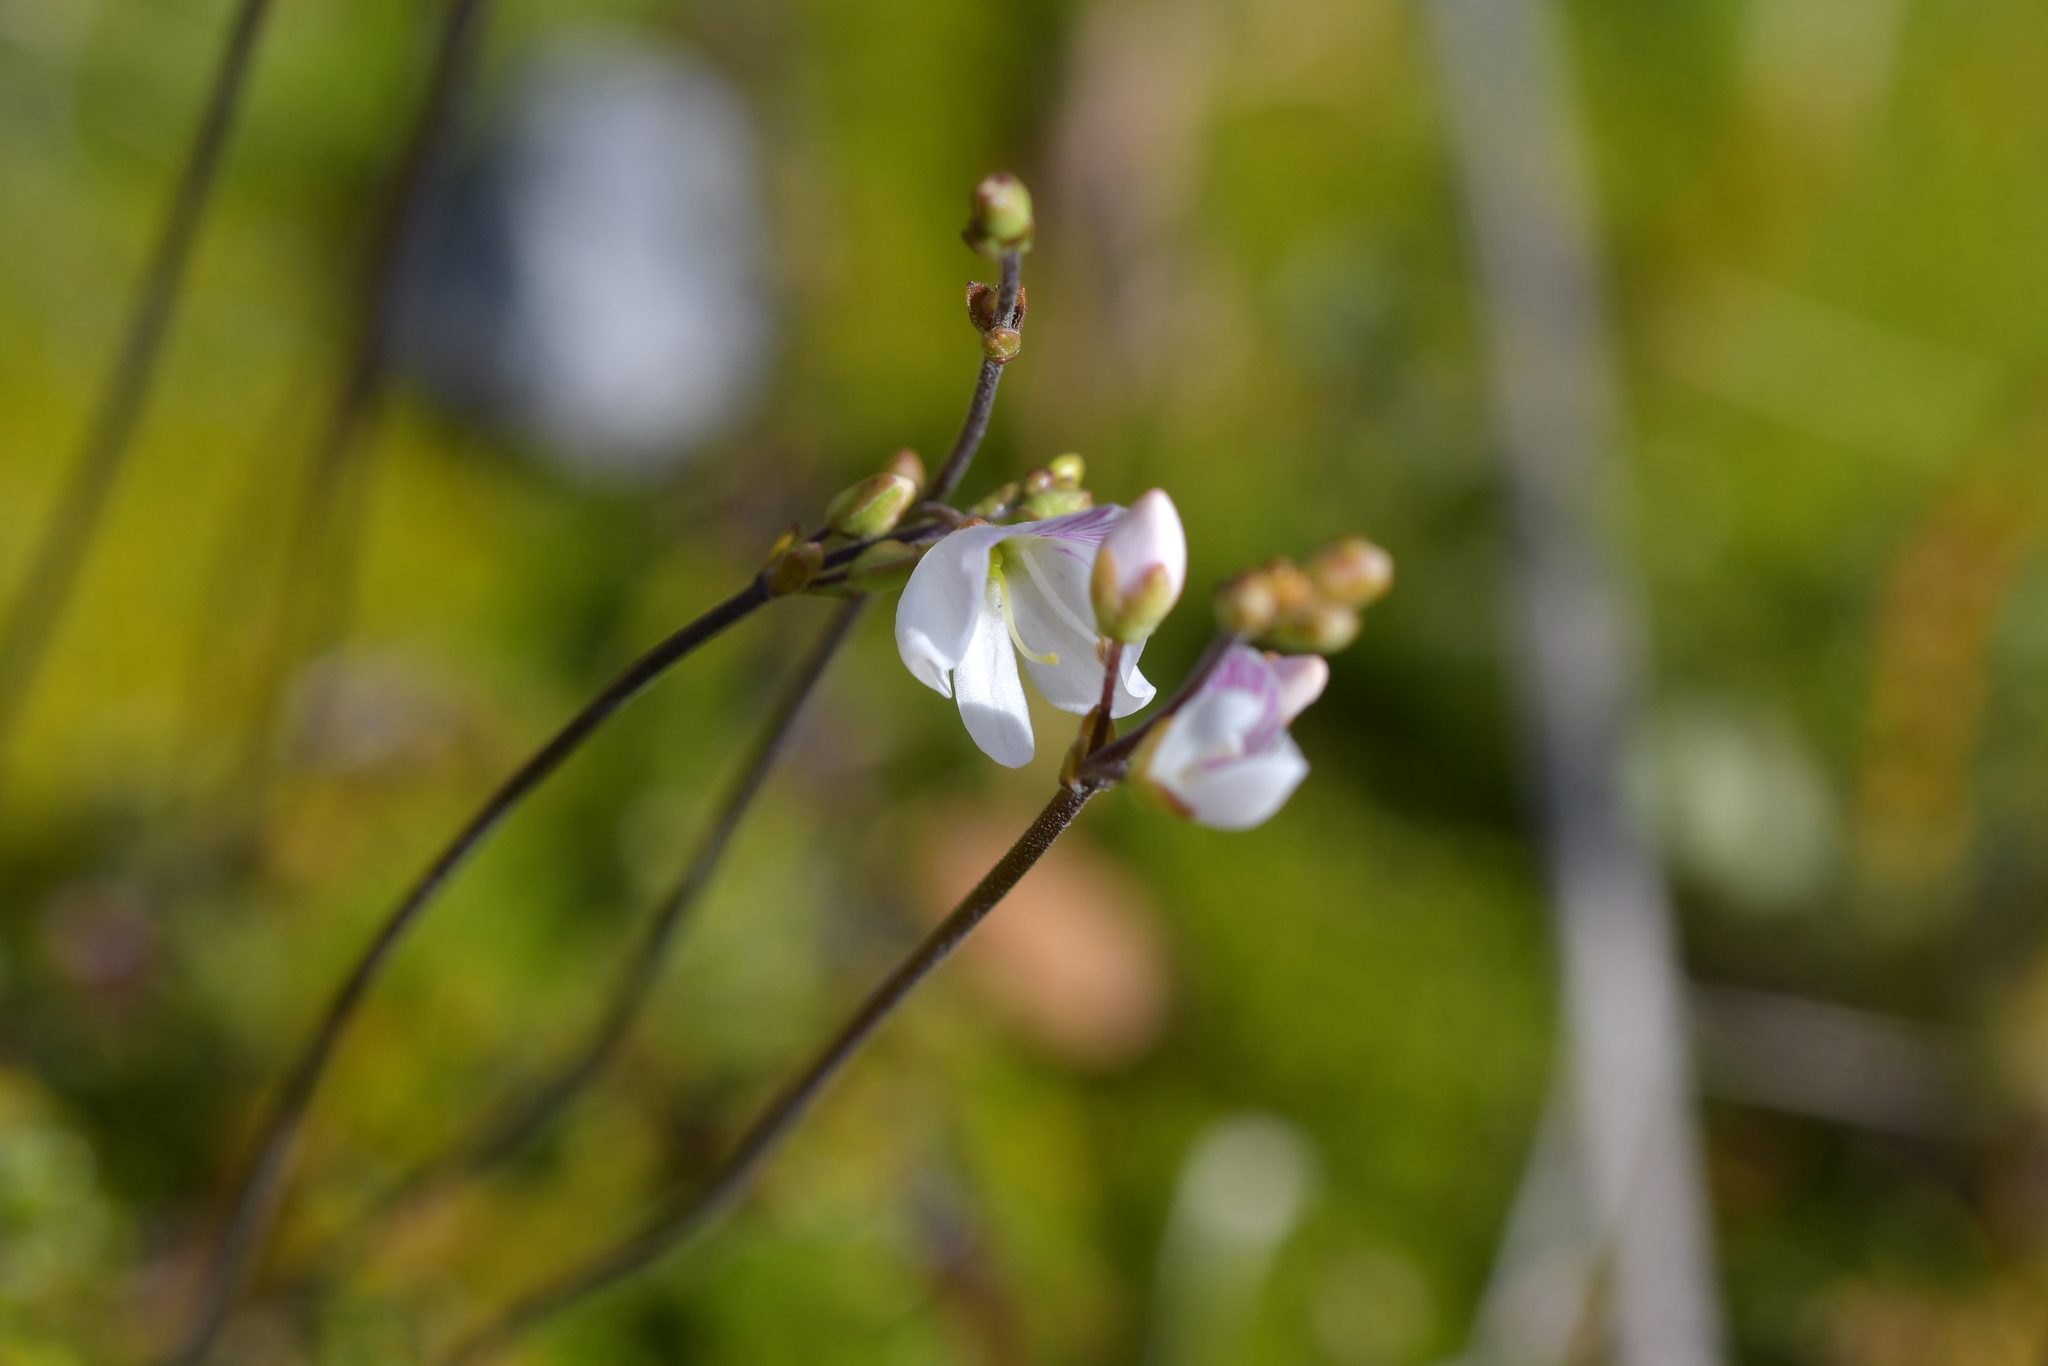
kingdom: Plantae
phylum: Tracheophyta
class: Magnoliopsida
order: Lamiales
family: Plantaginaceae
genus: Veronica
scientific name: Veronica decora
